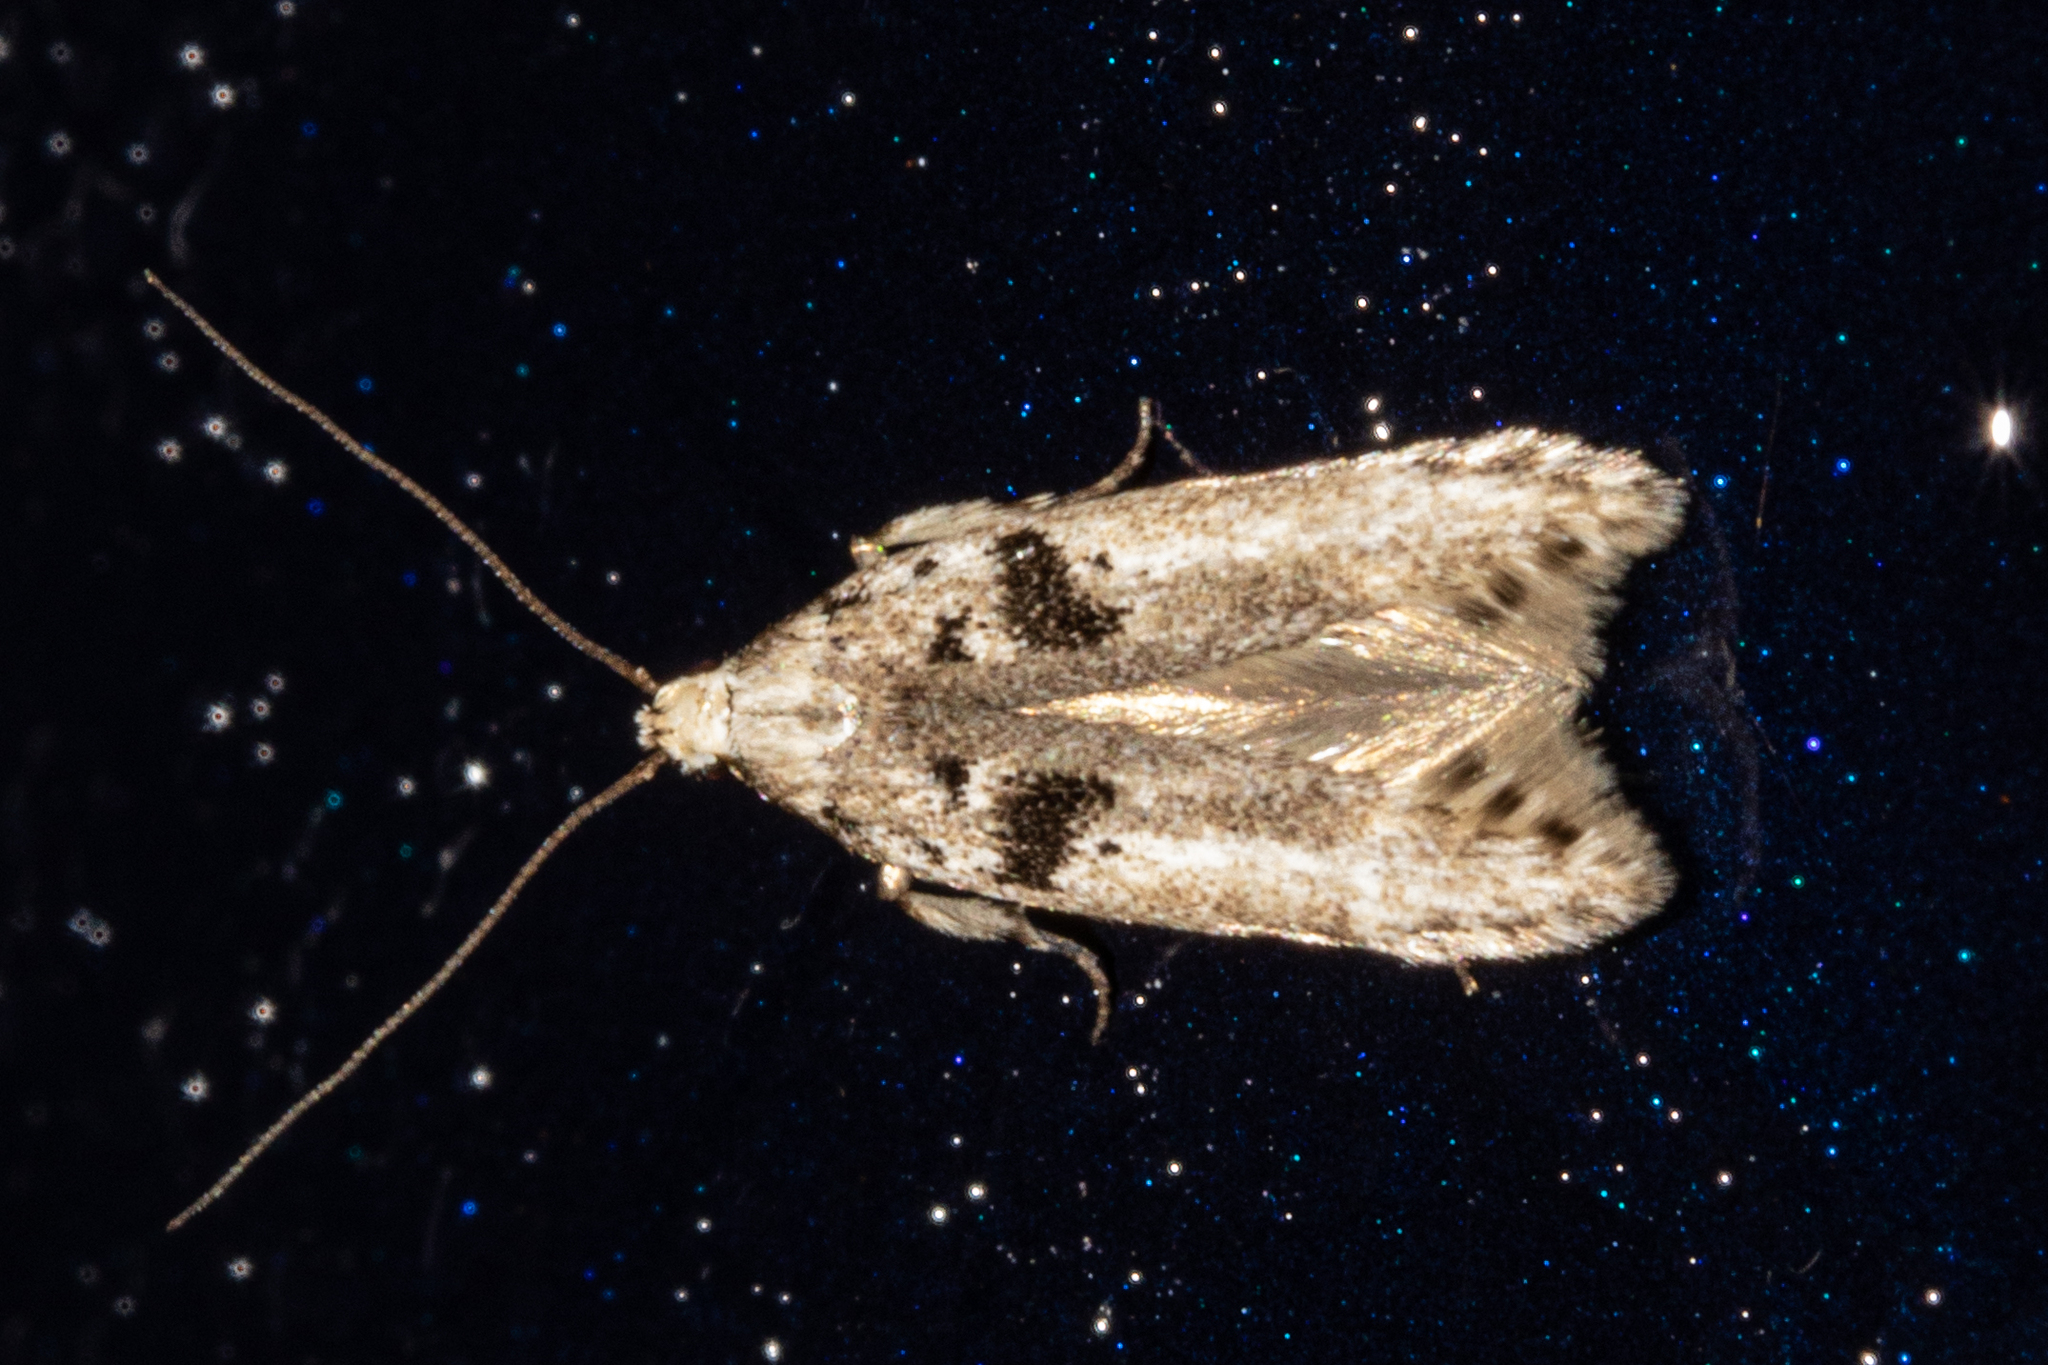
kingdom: Animalia
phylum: Arthropoda
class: Insecta
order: Lepidoptera
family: Gelechiidae
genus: Aristotelia
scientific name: Aristotelia paradesma
